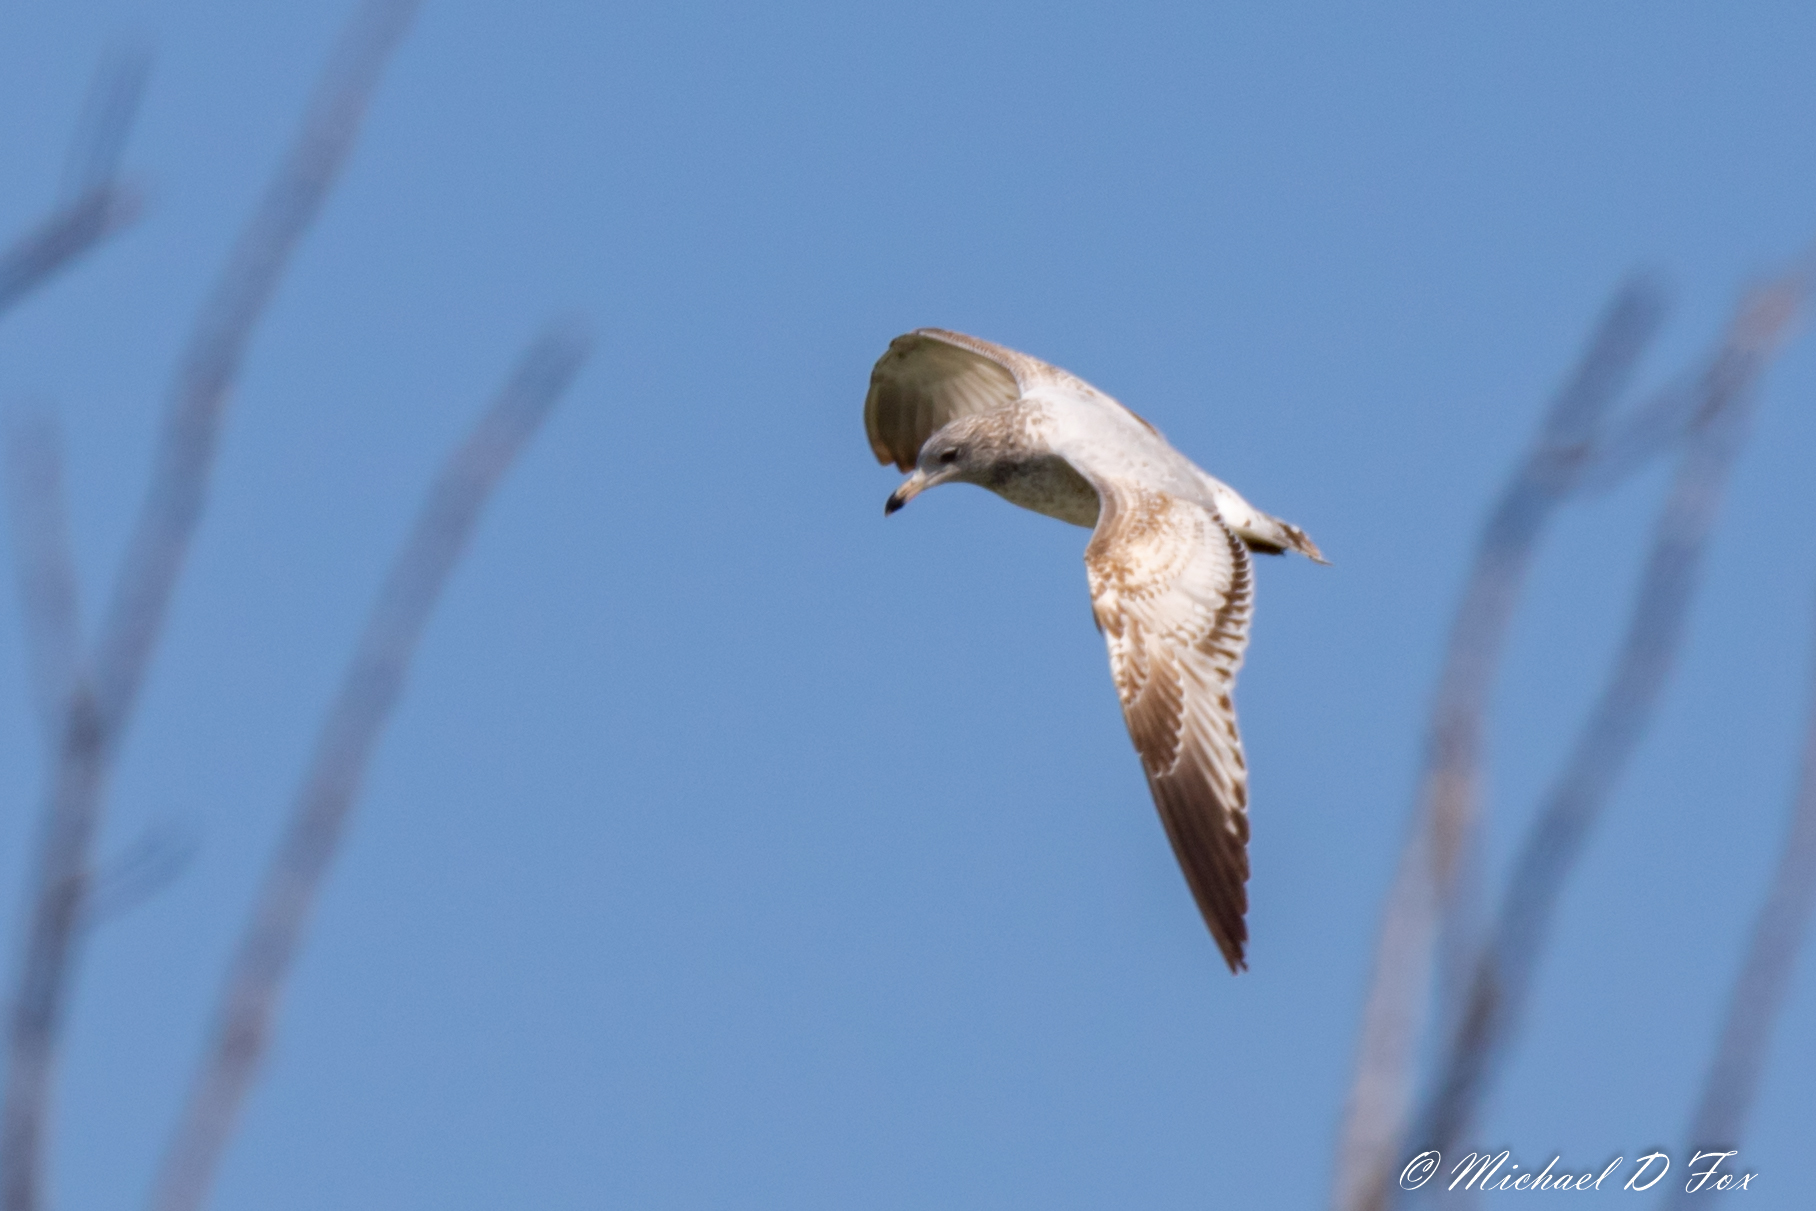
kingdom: Animalia
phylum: Chordata
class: Aves
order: Charadriiformes
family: Laridae
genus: Larus
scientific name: Larus delawarensis
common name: Ring-billed gull
